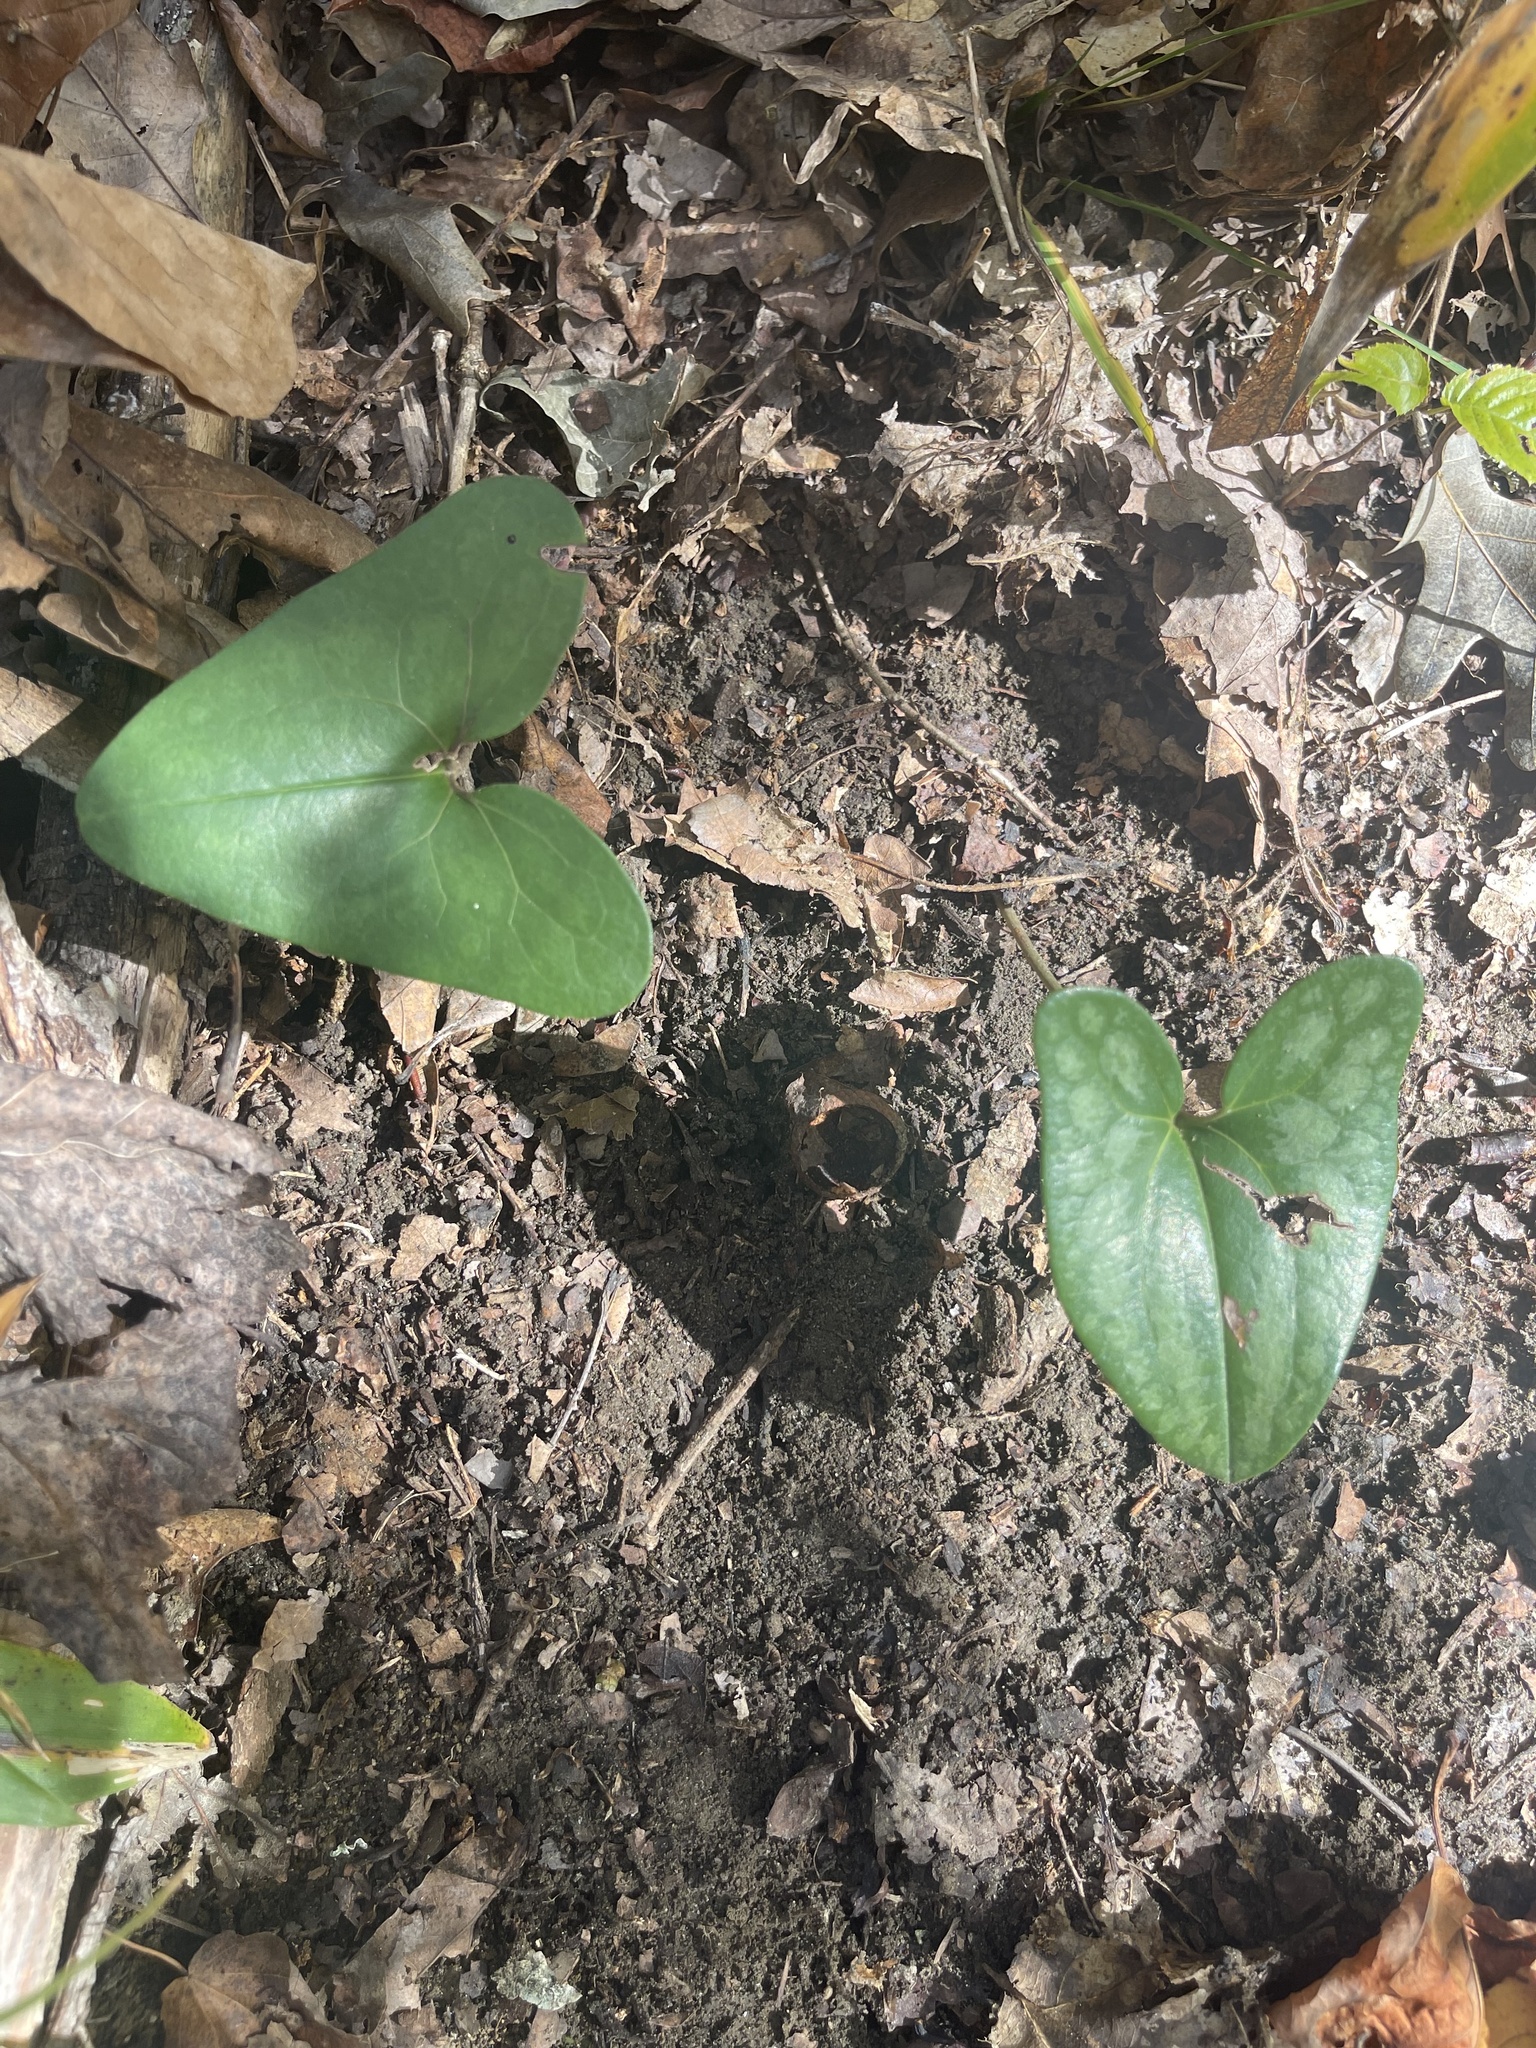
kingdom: Plantae
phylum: Tracheophyta
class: Magnoliopsida
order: Piperales
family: Aristolochiaceae
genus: Hexastylis
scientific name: Hexastylis arifolia
